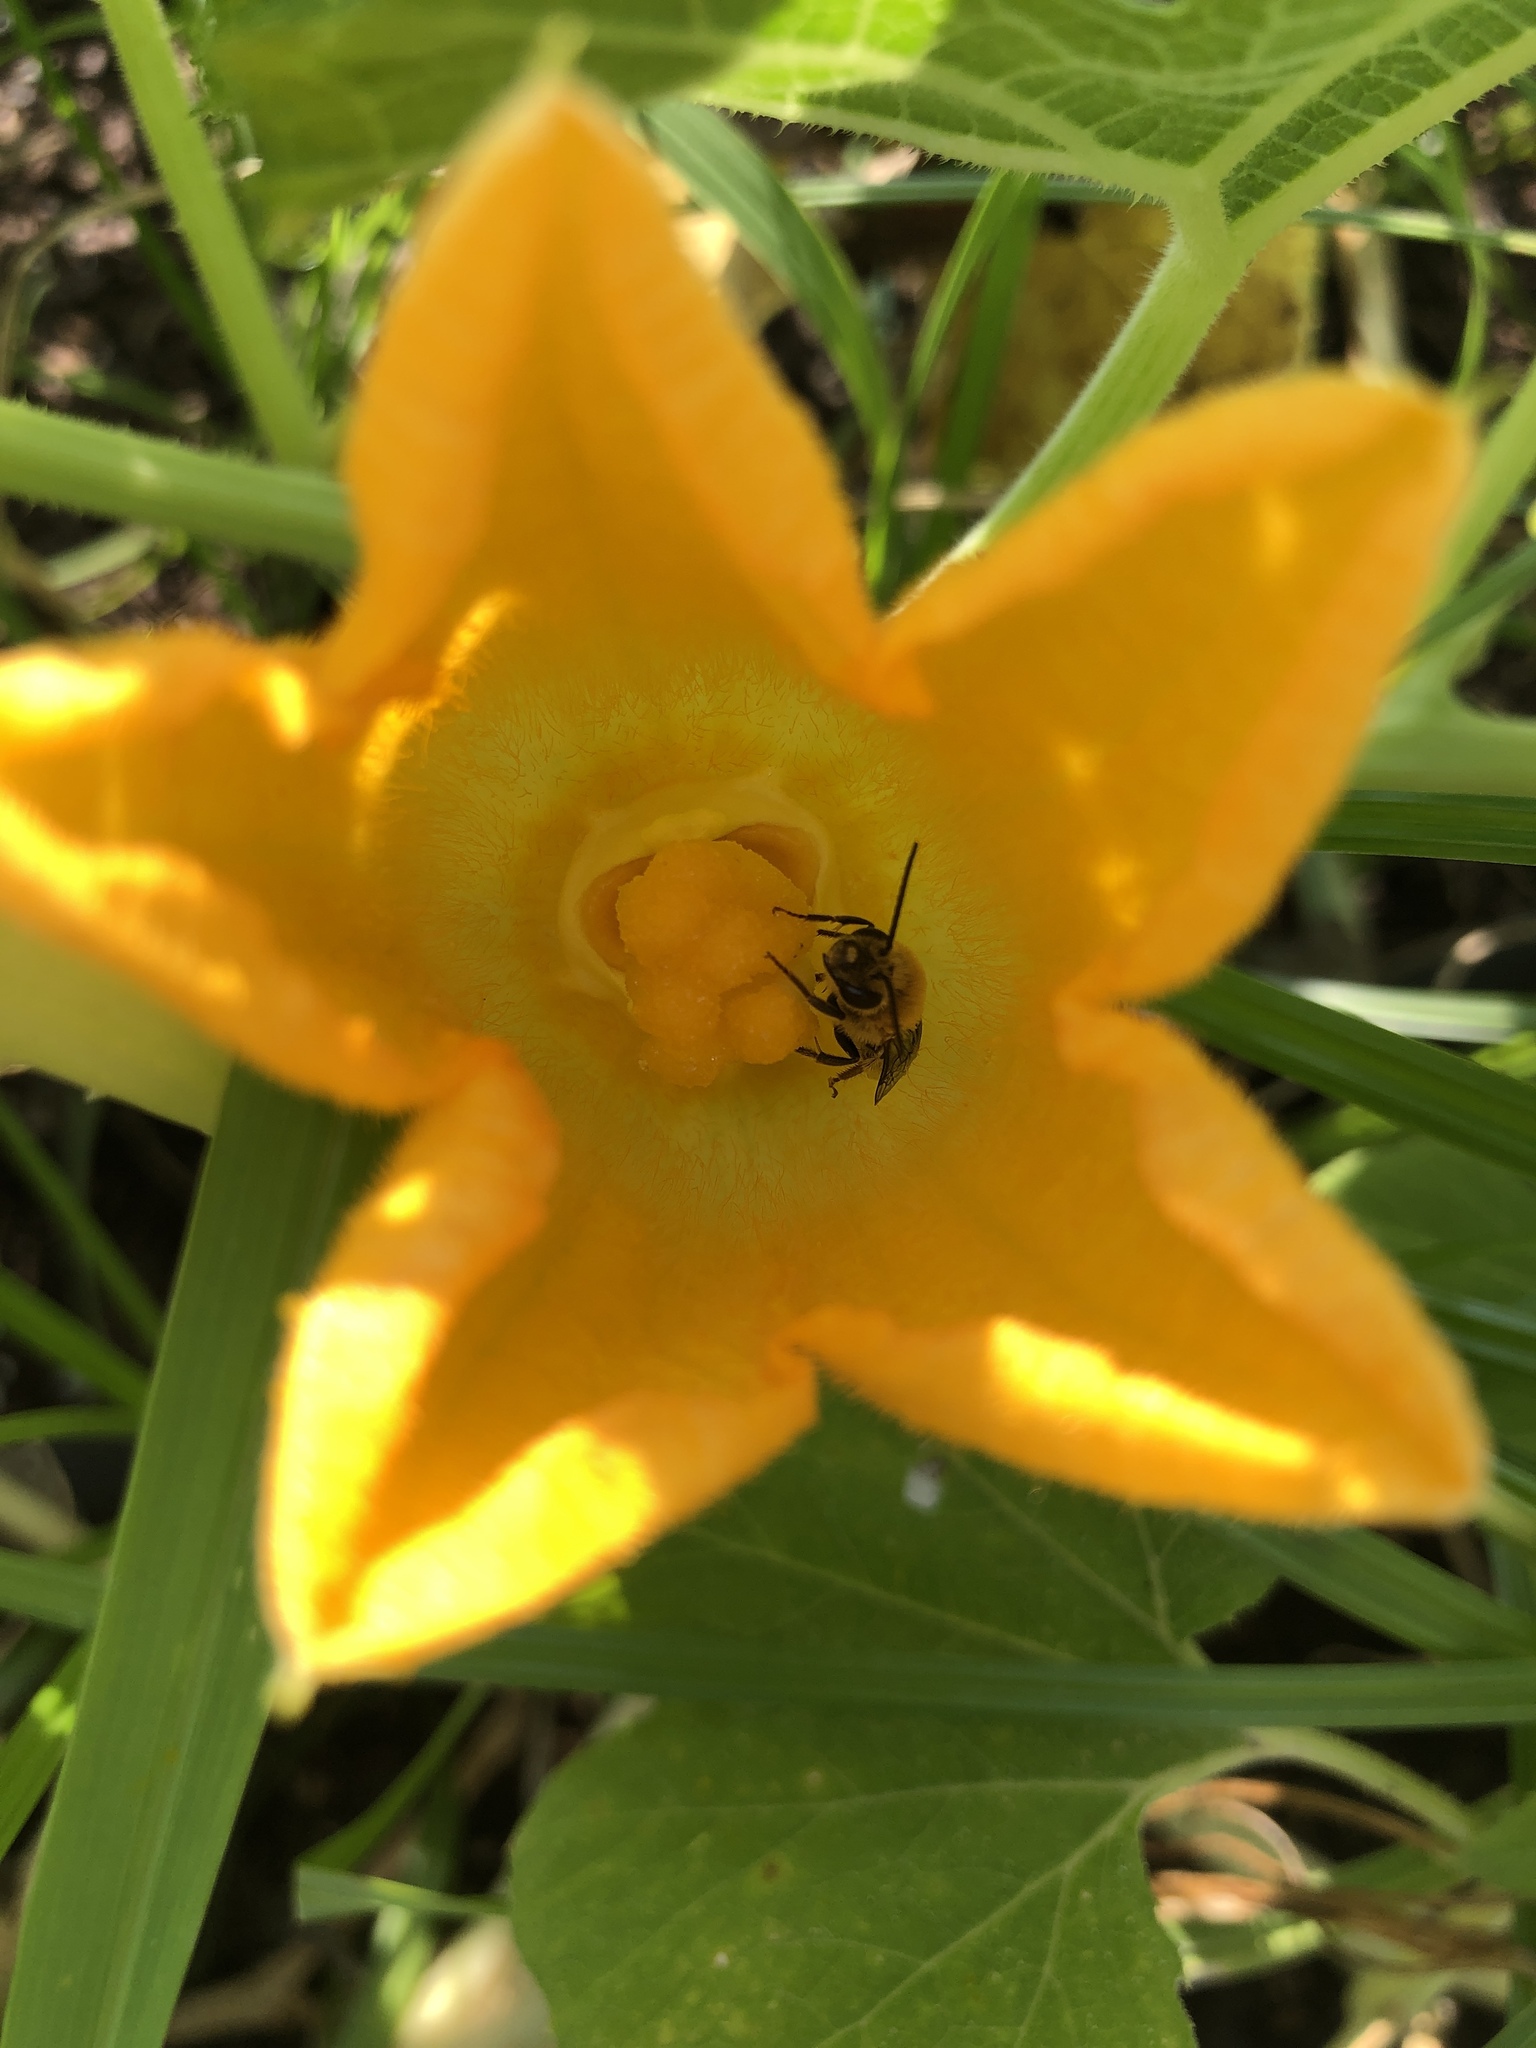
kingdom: Animalia
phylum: Arthropoda
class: Insecta
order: Hymenoptera
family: Apidae
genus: Peponapis
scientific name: Peponapis pruinosa
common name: Pruinose squash bee
